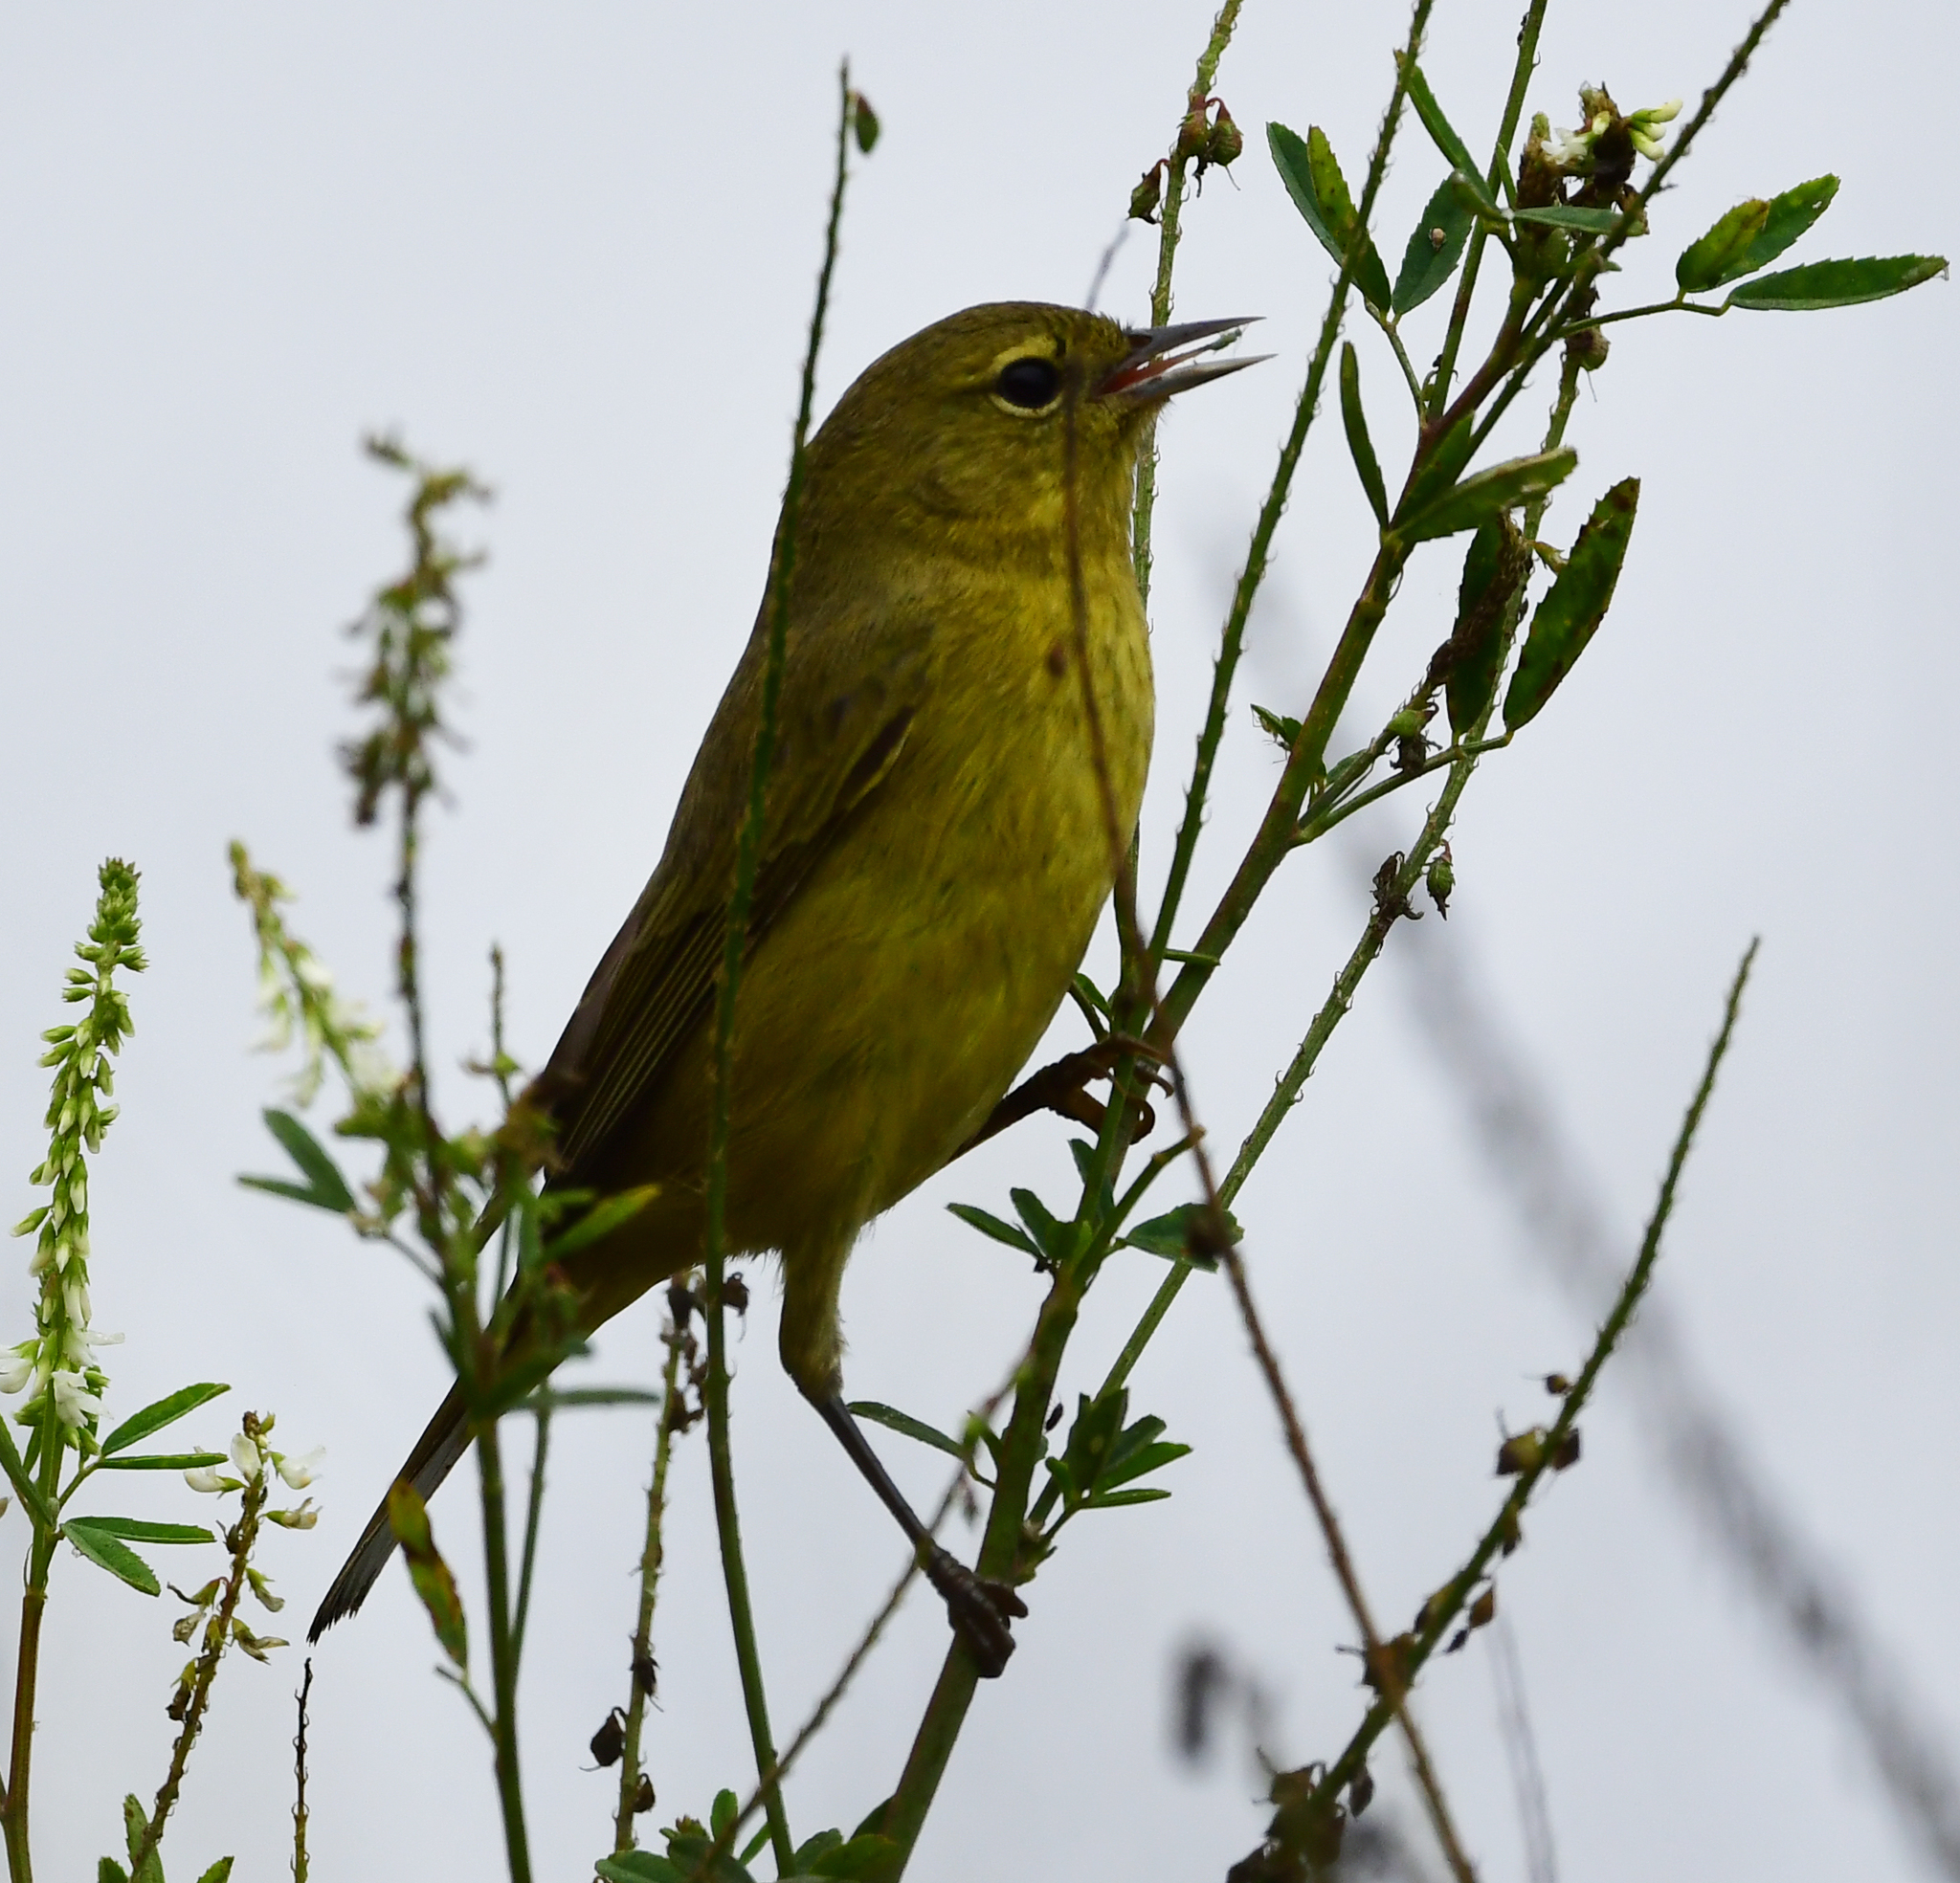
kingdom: Animalia
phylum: Chordata
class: Aves
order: Passeriformes
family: Parulidae
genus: Leiothlypis
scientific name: Leiothlypis celata
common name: Orange-crowned warbler
